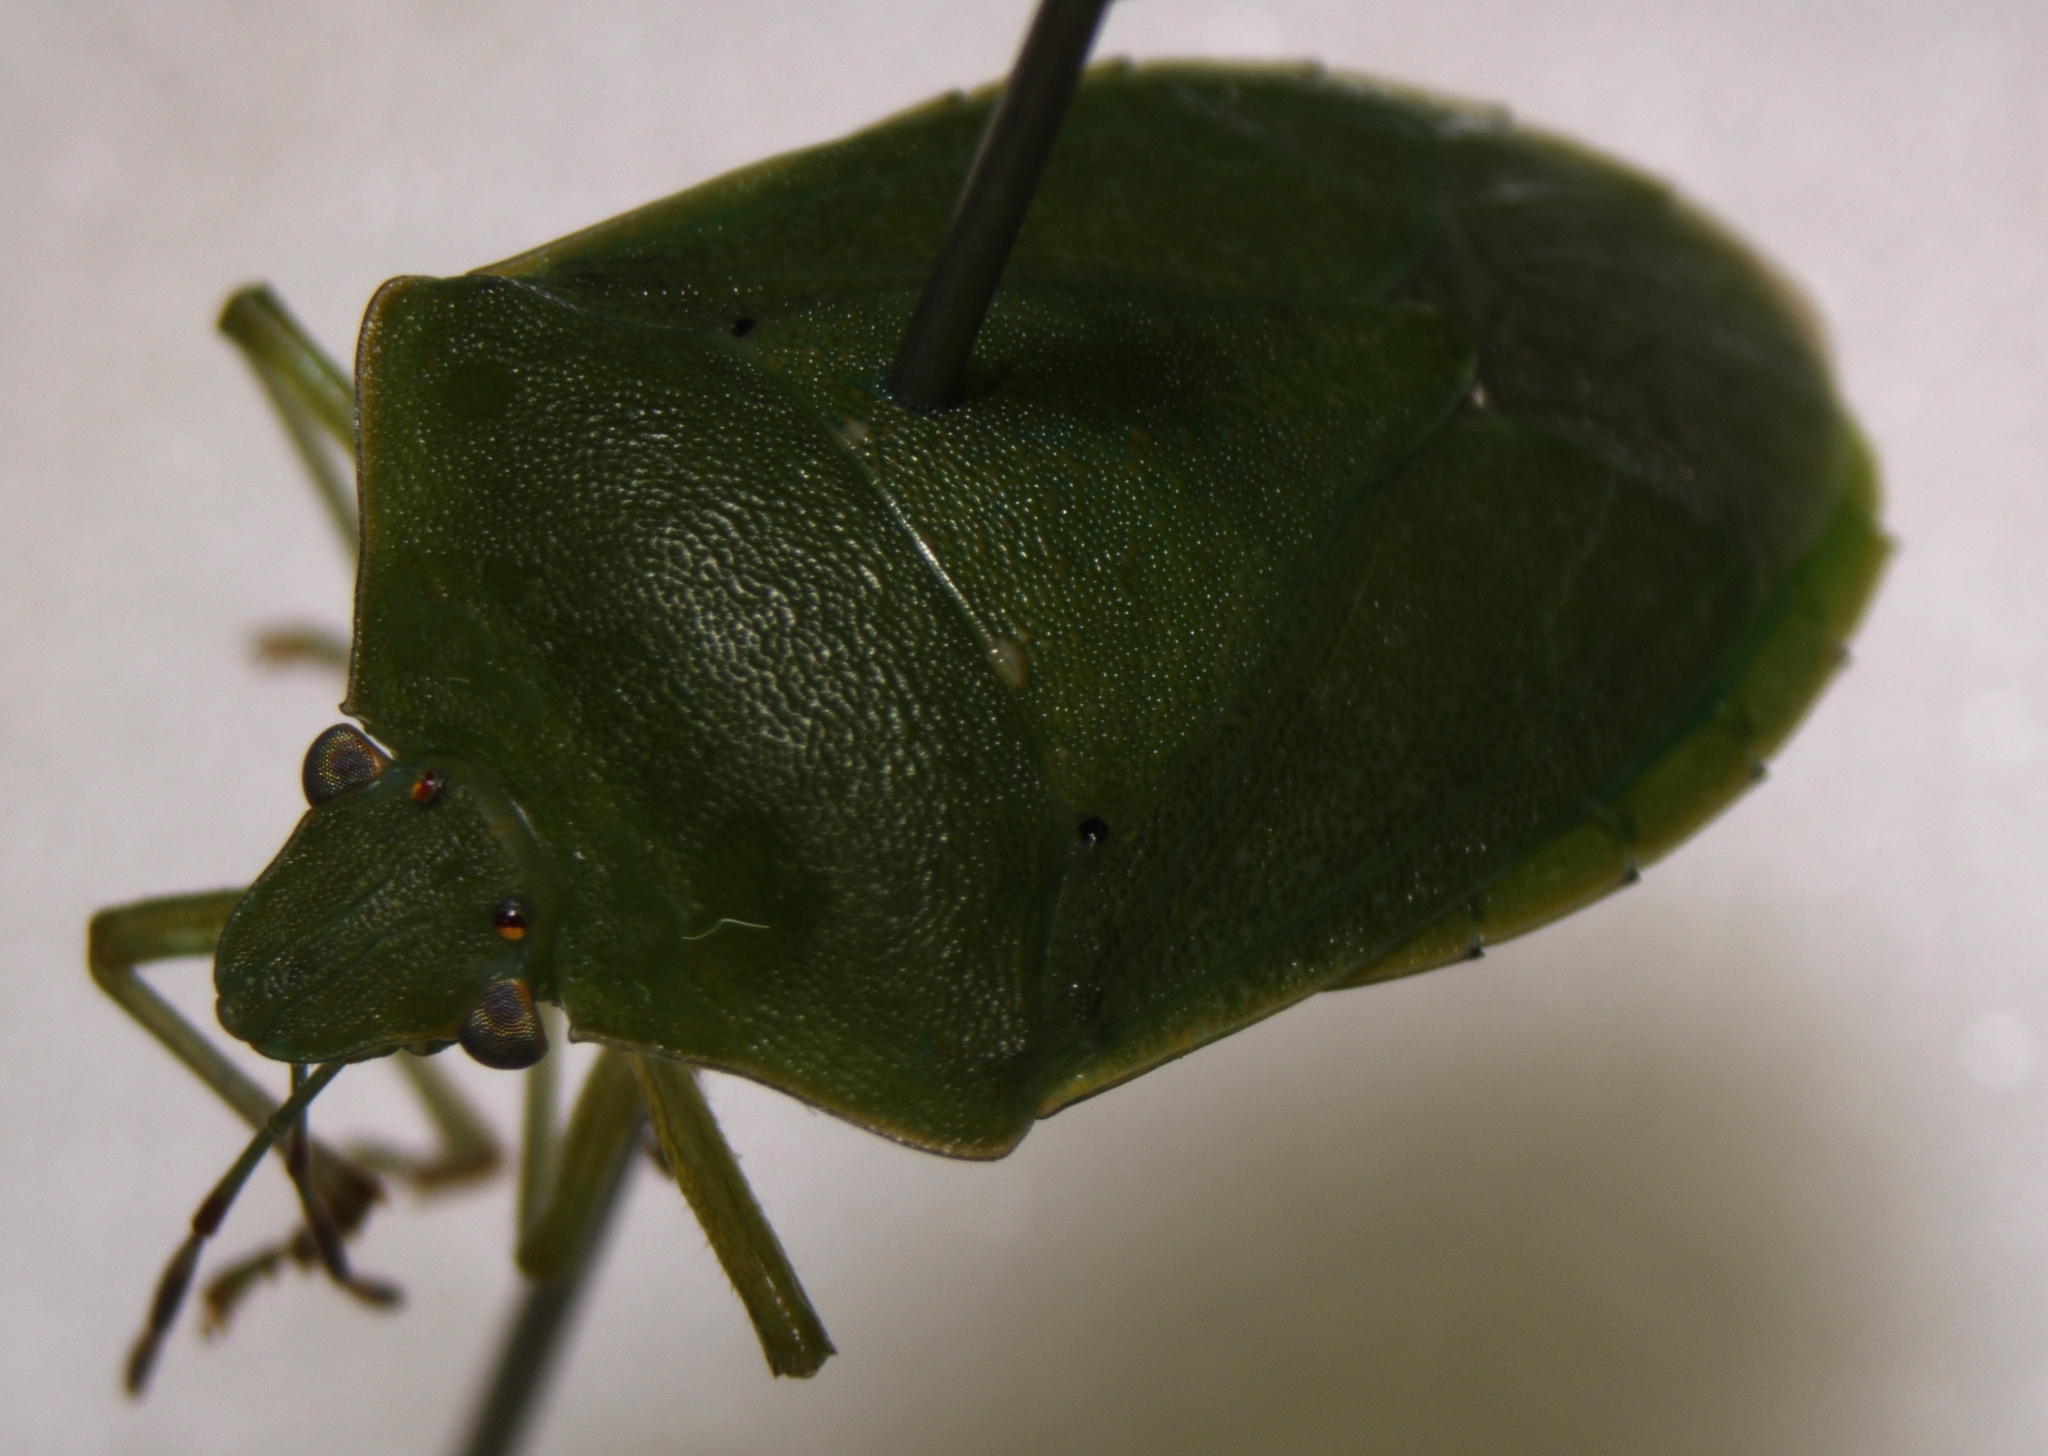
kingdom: Animalia
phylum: Arthropoda
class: Insecta
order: Hemiptera
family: Pentatomidae
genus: Nezara
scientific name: Nezara viridula
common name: Southern green stink bug
